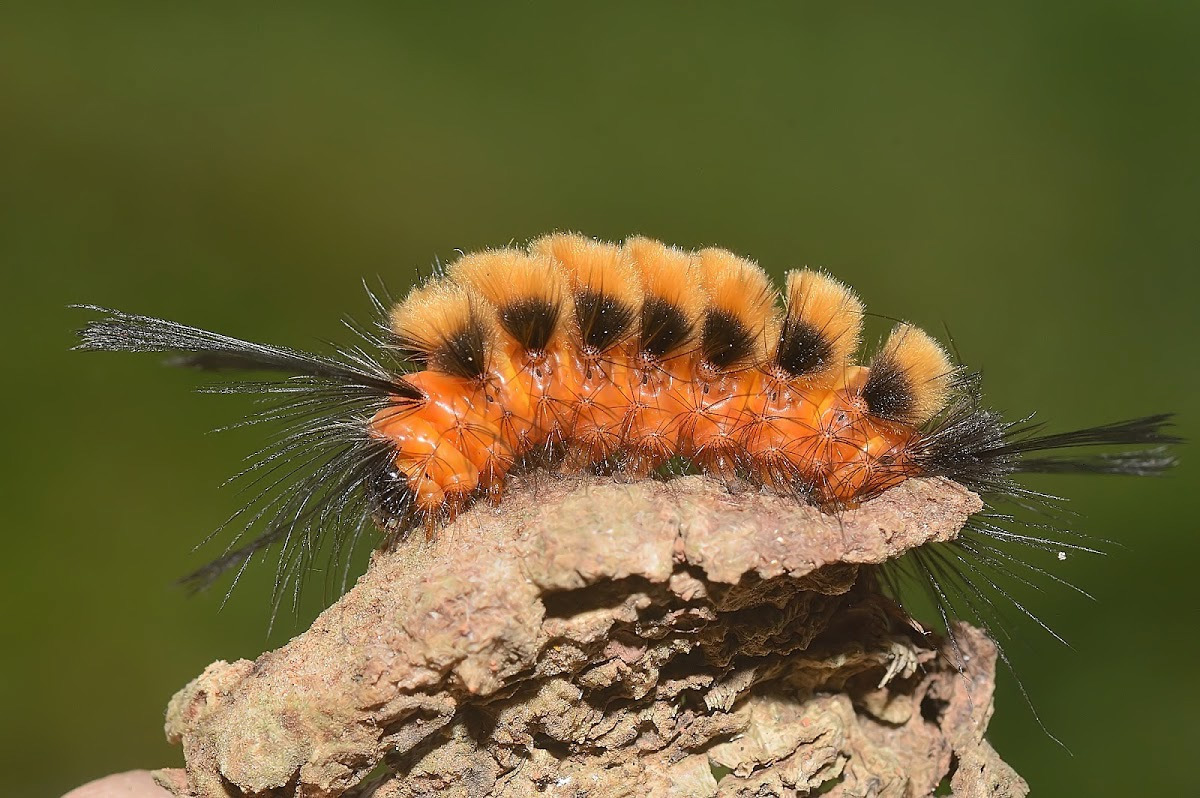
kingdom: Animalia
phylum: Arthropoda
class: Insecta
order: Lepidoptera
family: Erebidae
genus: Euchromia
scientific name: Euchromia polymena
